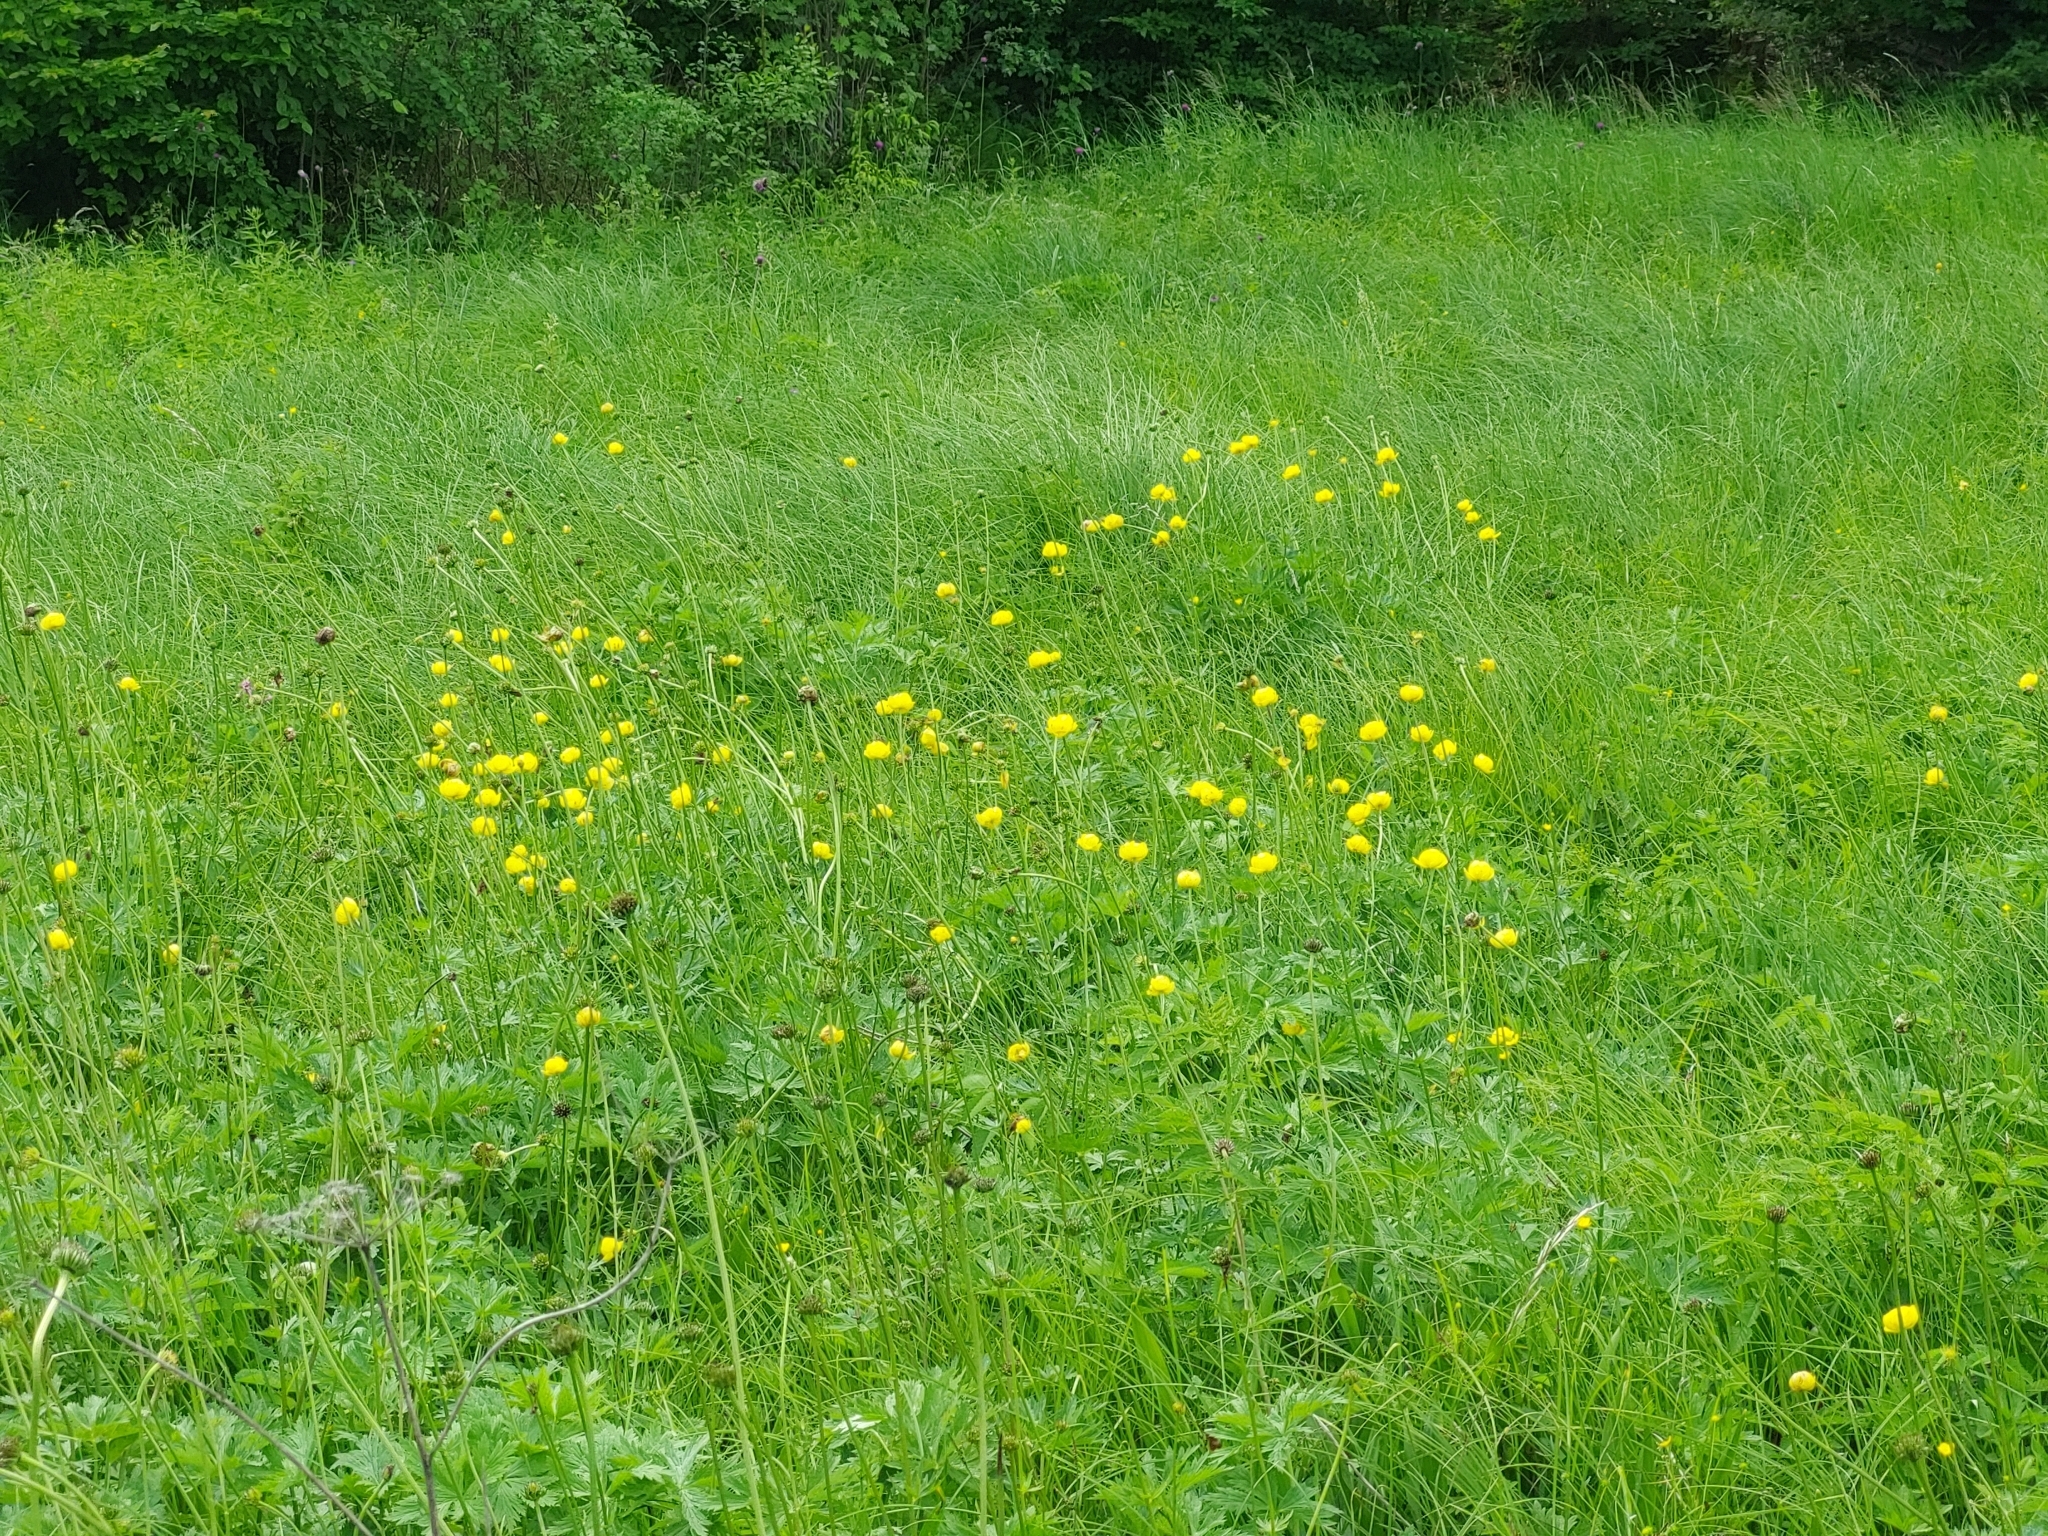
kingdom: Plantae
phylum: Tracheophyta
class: Magnoliopsida
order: Ranunculales
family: Ranunculaceae
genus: Trollius
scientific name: Trollius europaeus
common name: European globeflower
